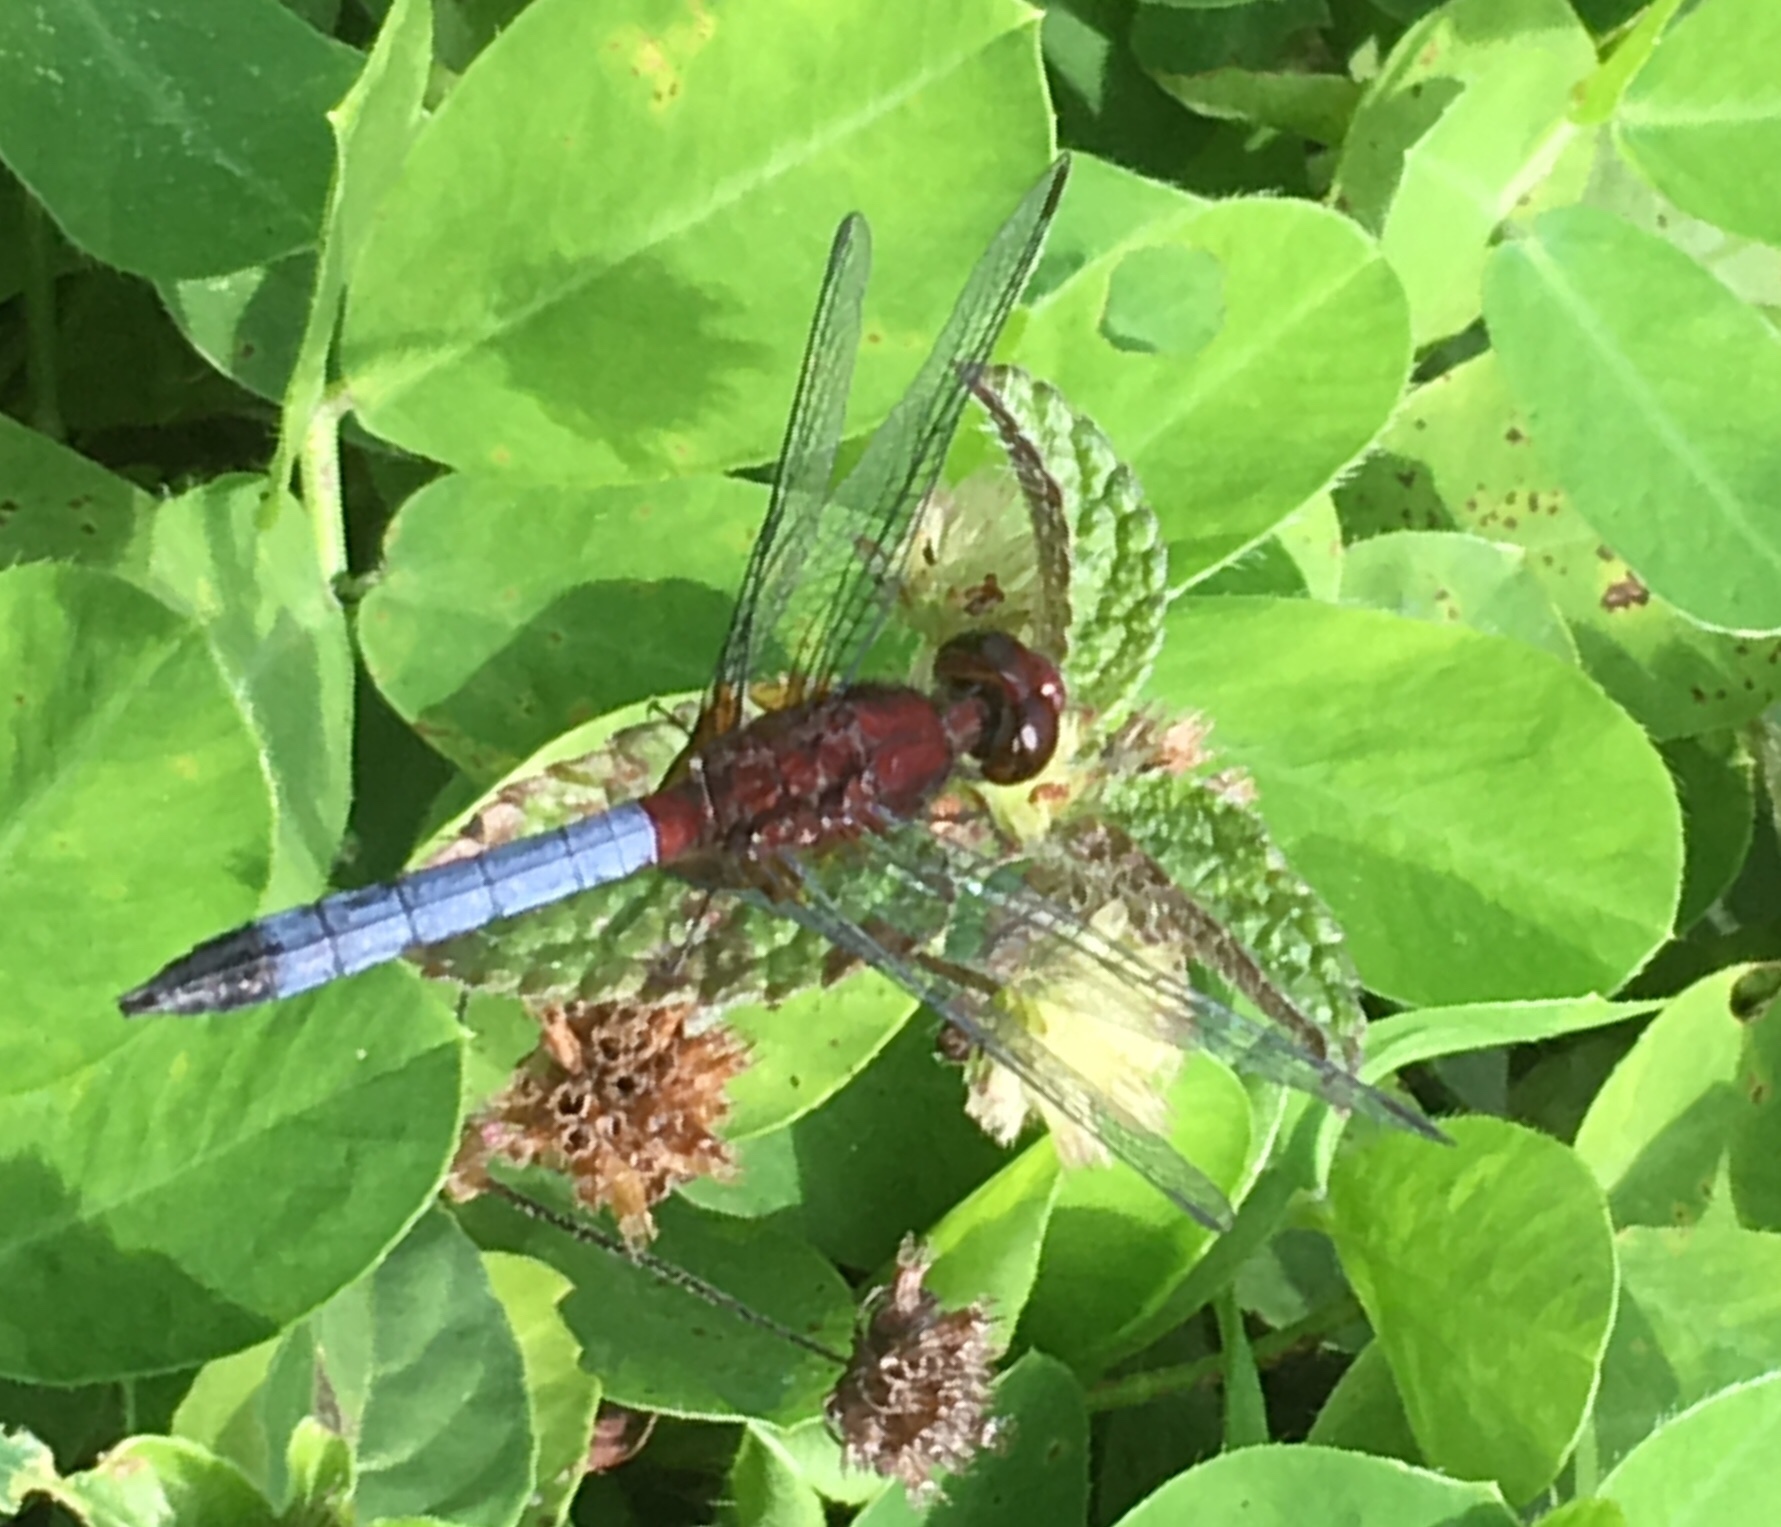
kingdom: Animalia
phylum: Arthropoda
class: Insecta
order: Odonata
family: Libellulidae
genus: Erythrodiplax
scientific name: Erythrodiplax fusca
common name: Red-faced dragonlet
